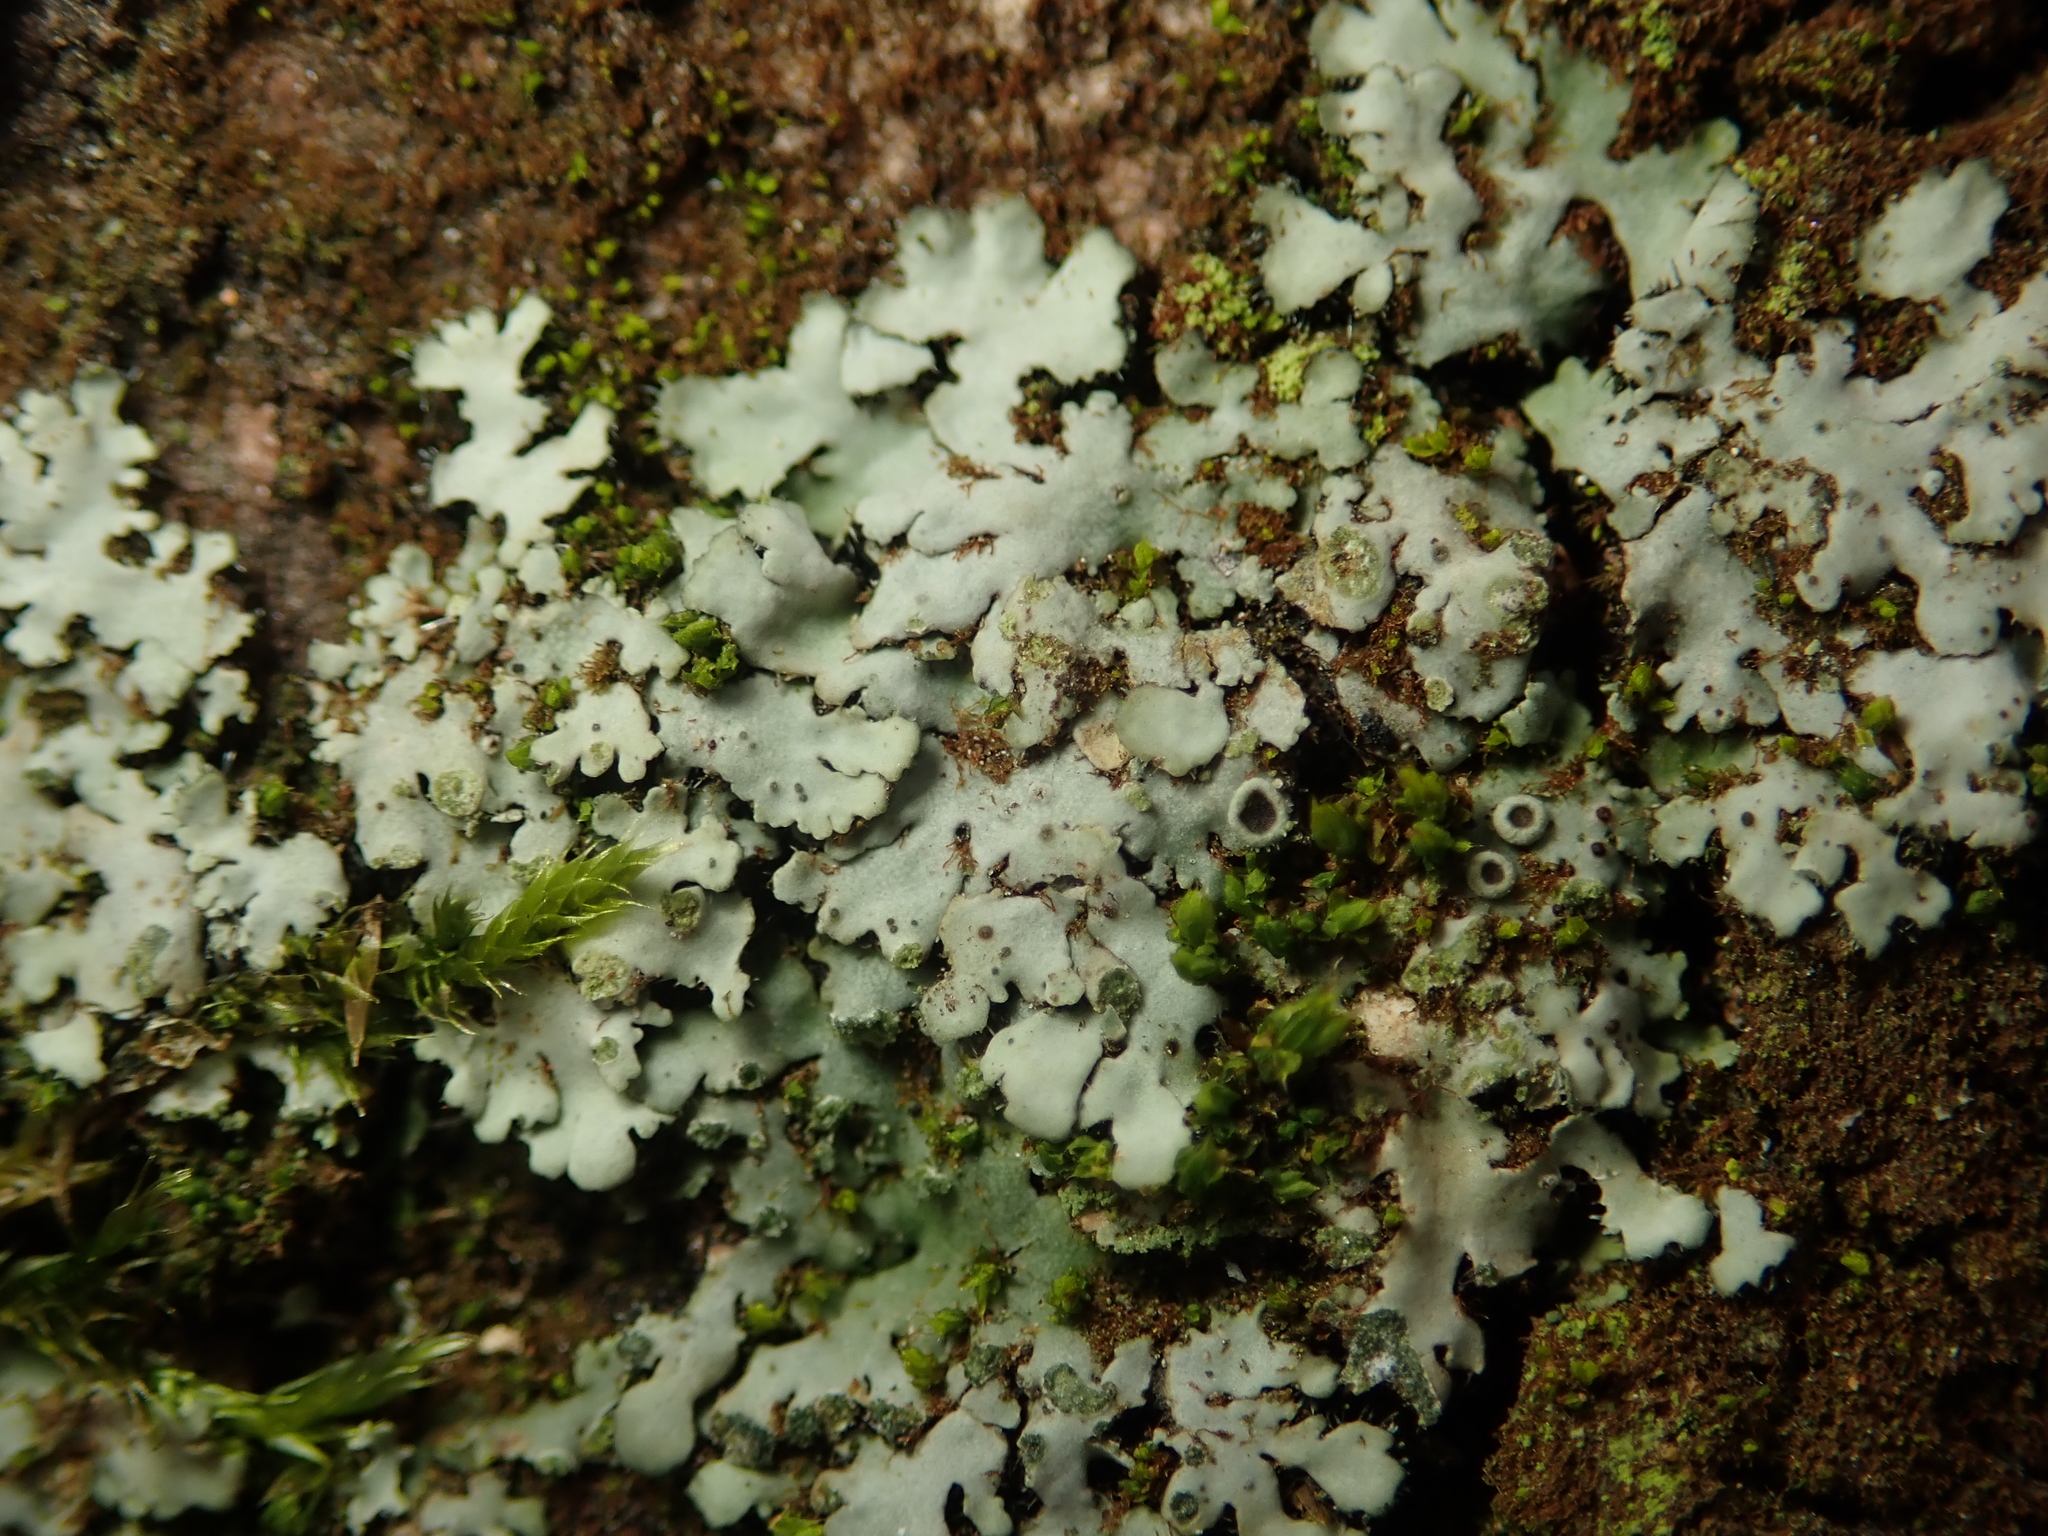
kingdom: Fungi
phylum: Ascomycota
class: Lecanoromycetes
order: Caliciales
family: Physciaceae
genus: Phaeophyscia
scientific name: Phaeophyscia orbicularis
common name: Mealy shadow lichen
